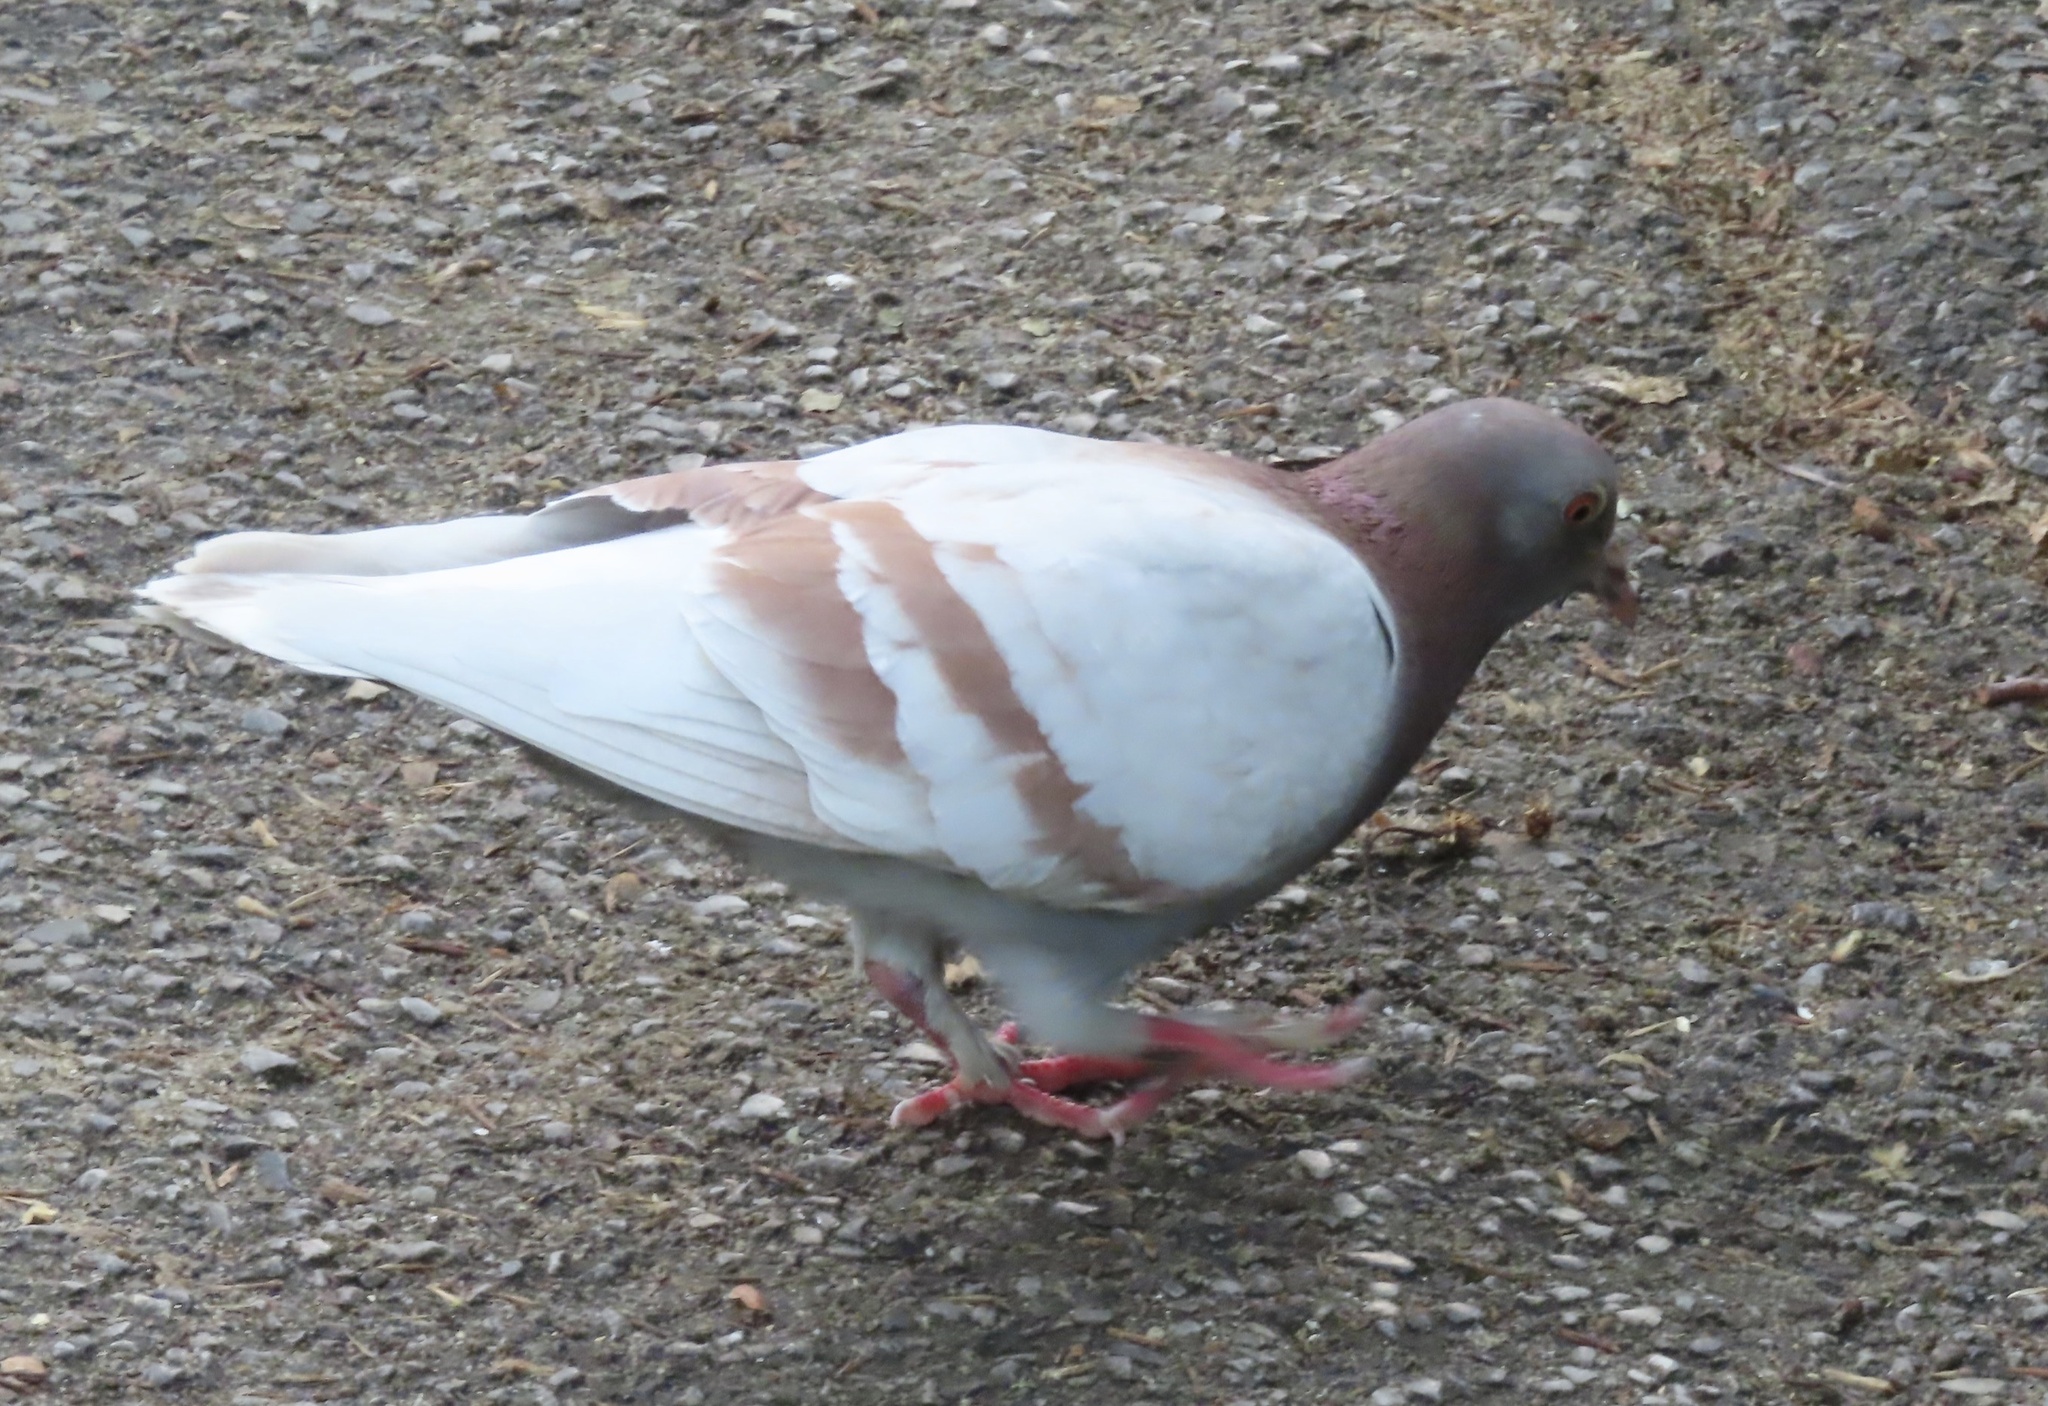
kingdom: Animalia
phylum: Chordata
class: Aves
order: Columbiformes
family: Columbidae
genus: Columba
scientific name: Columba livia
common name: Rock pigeon
